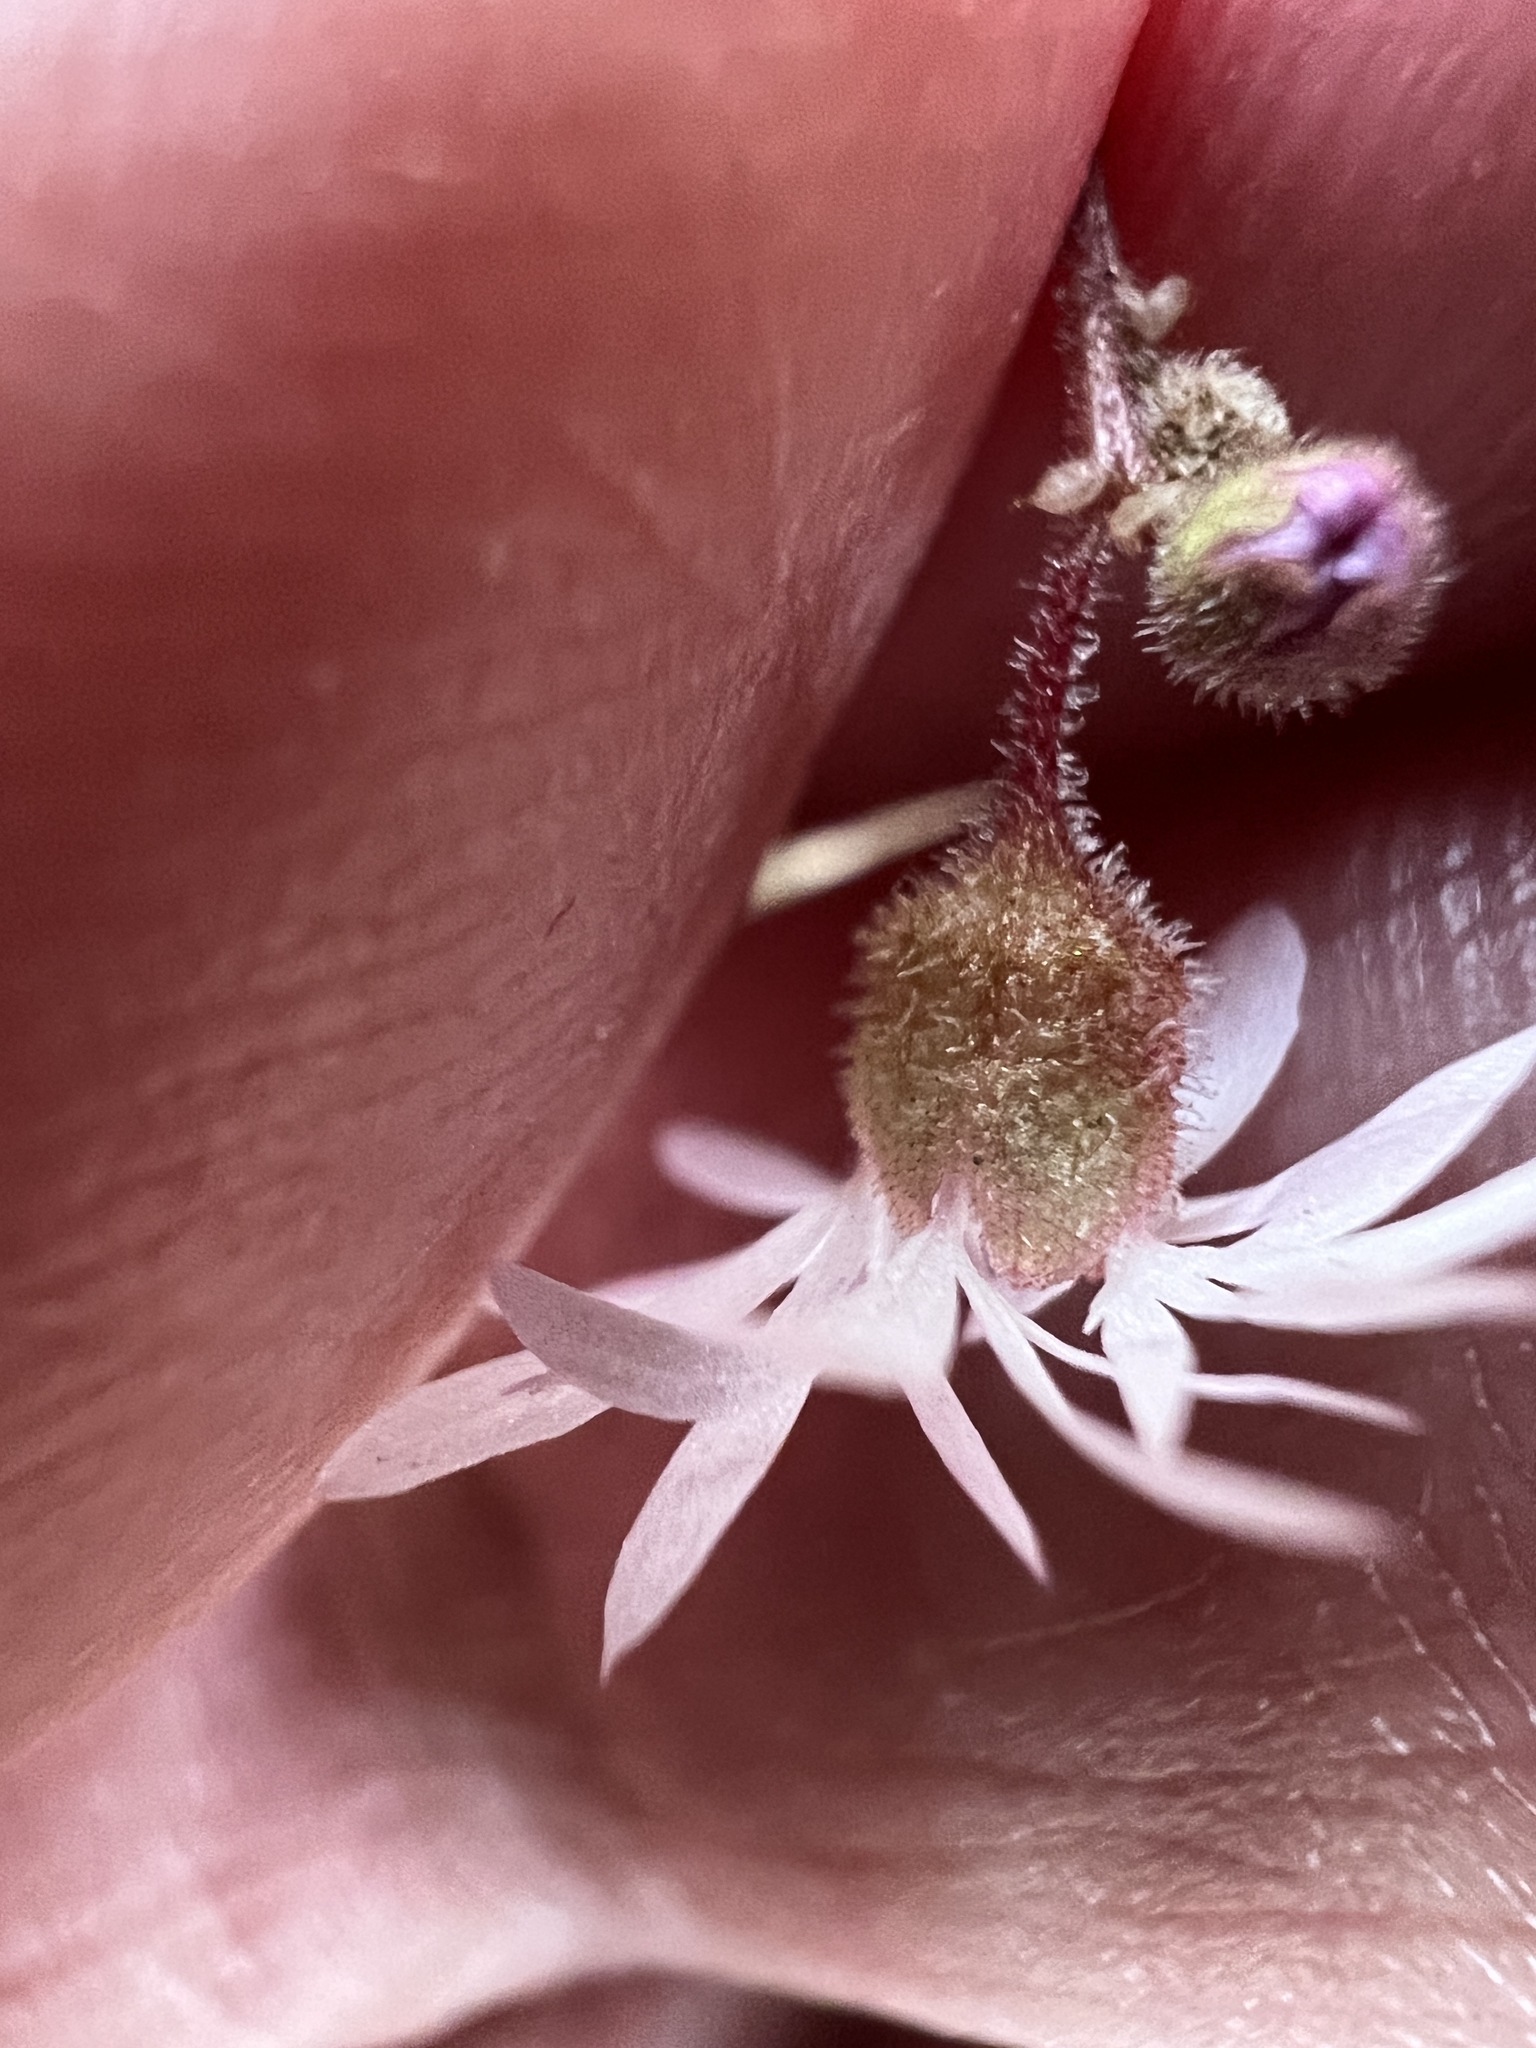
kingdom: Plantae
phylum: Tracheophyta
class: Magnoliopsida
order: Saxifragales
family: Saxifragaceae
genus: Lithophragma
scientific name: Lithophragma glabrum
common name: Bulbous prairie-star
